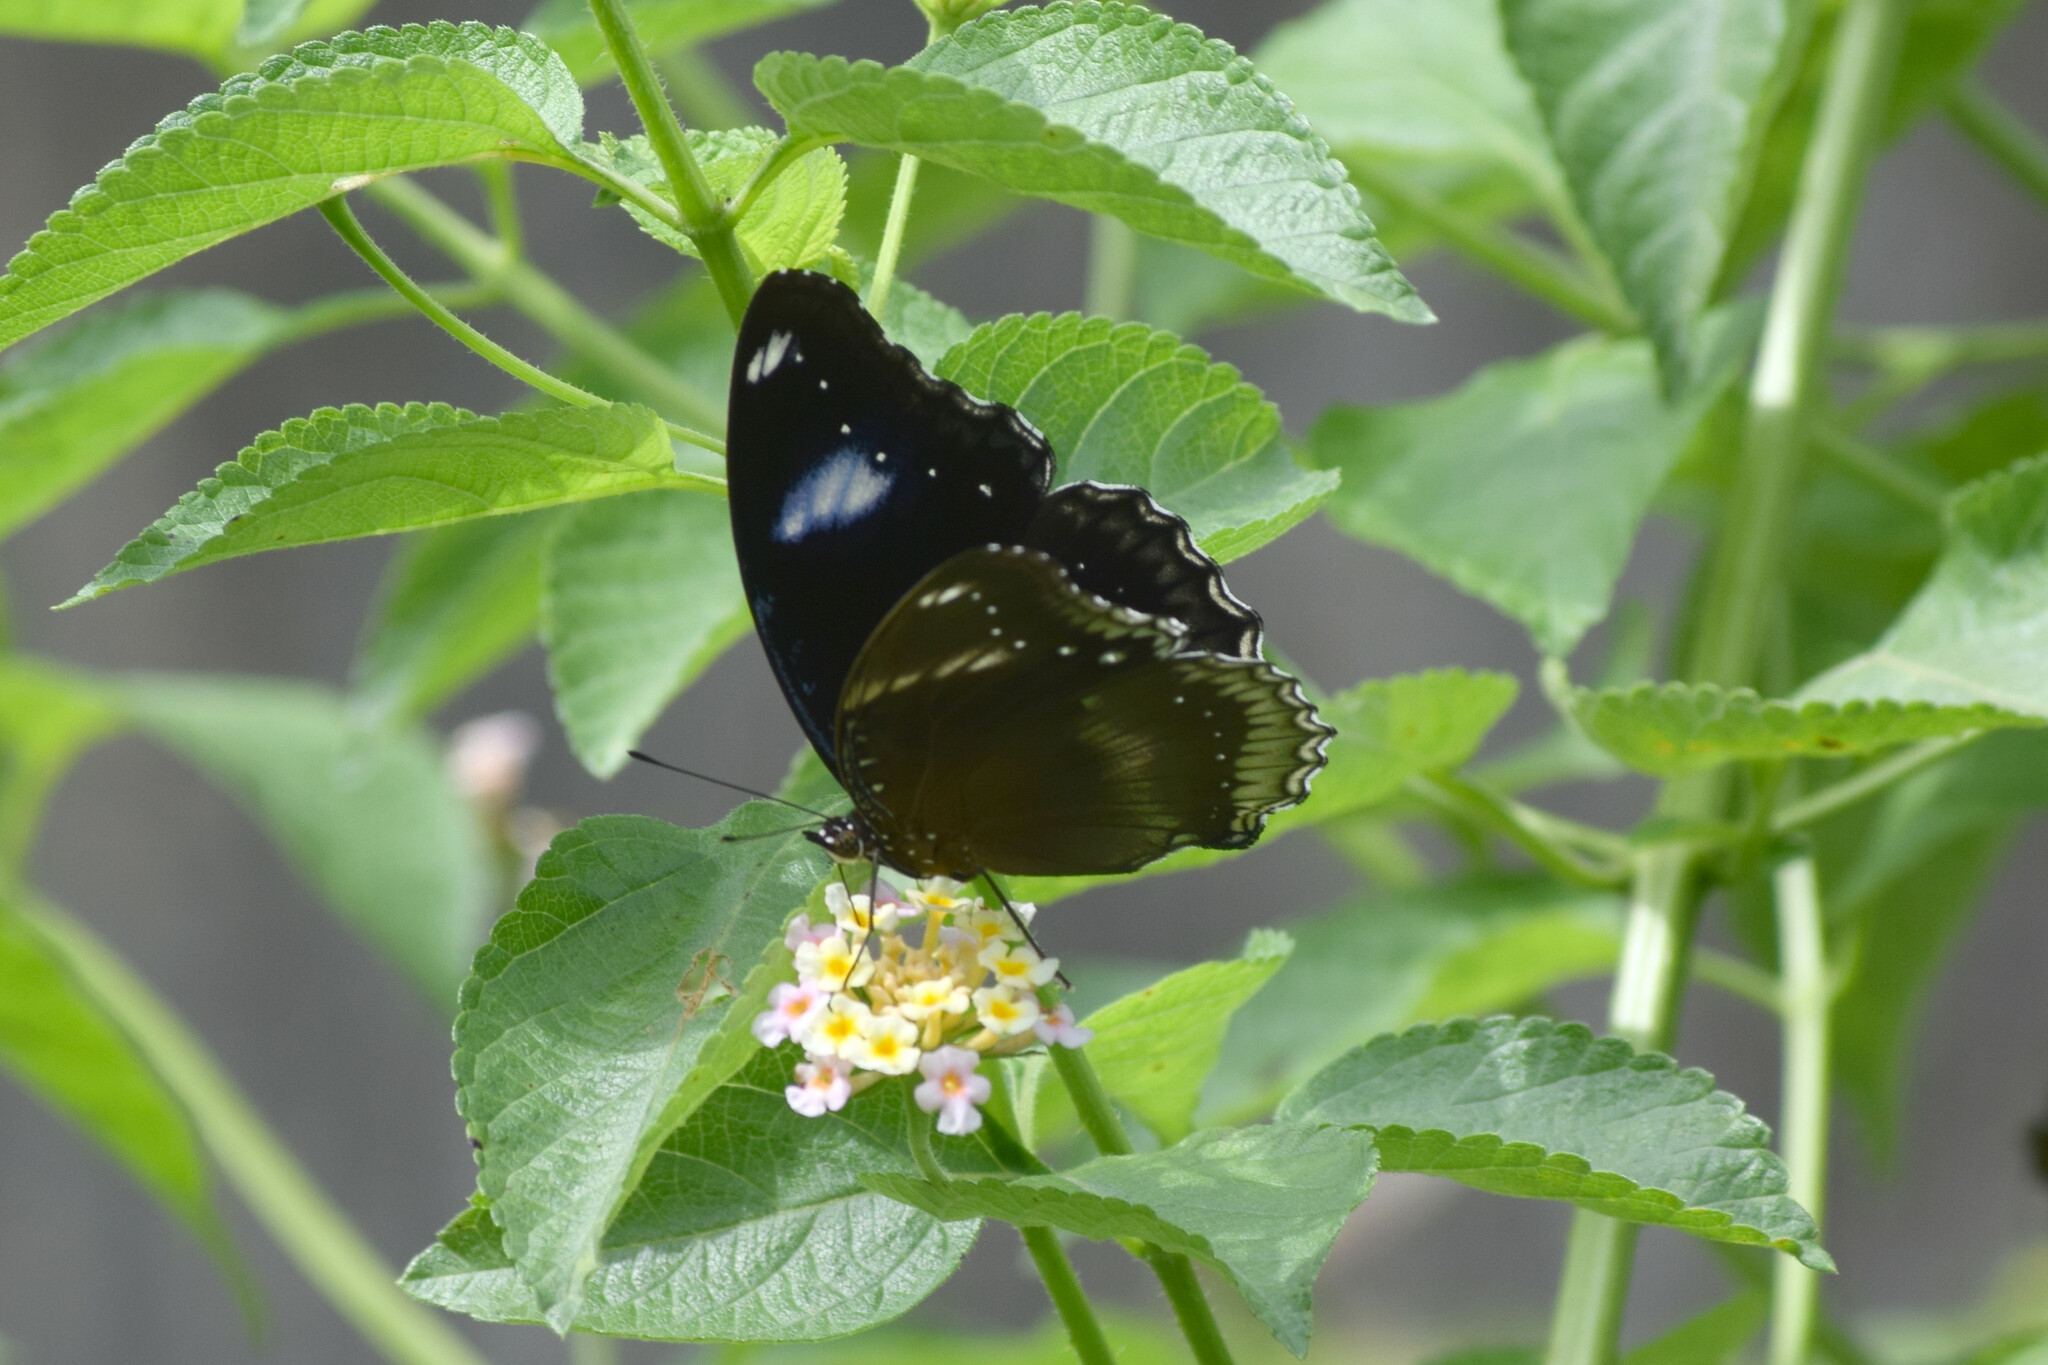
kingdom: Animalia
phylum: Arthropoda
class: Insecta
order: Lepidoptera
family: Nymphalidae
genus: Hypolimnas
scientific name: Hypolimnas bolina
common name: Great eggfly
